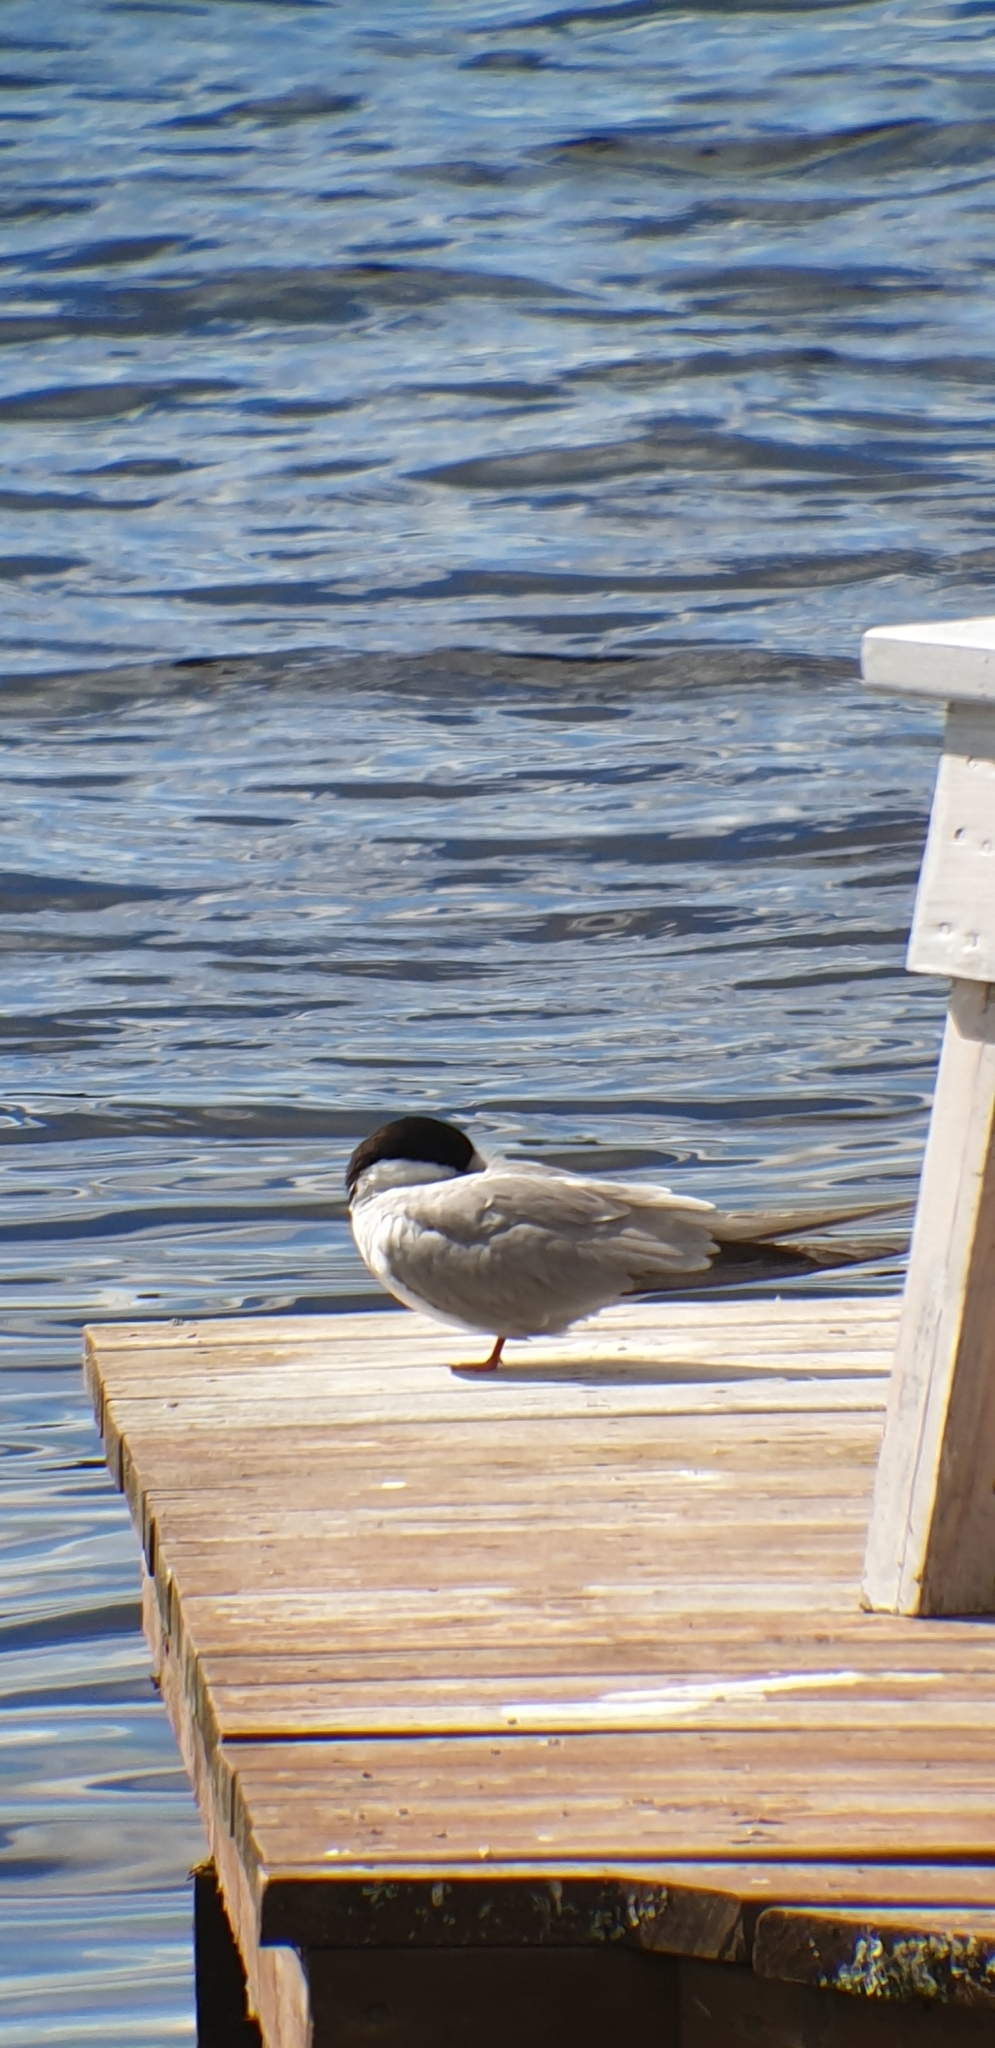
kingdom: Animalia
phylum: Chordata
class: Aves
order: Charadriiformes
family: Laridae
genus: Sterna
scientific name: Sterna hirundo
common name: Common tern
